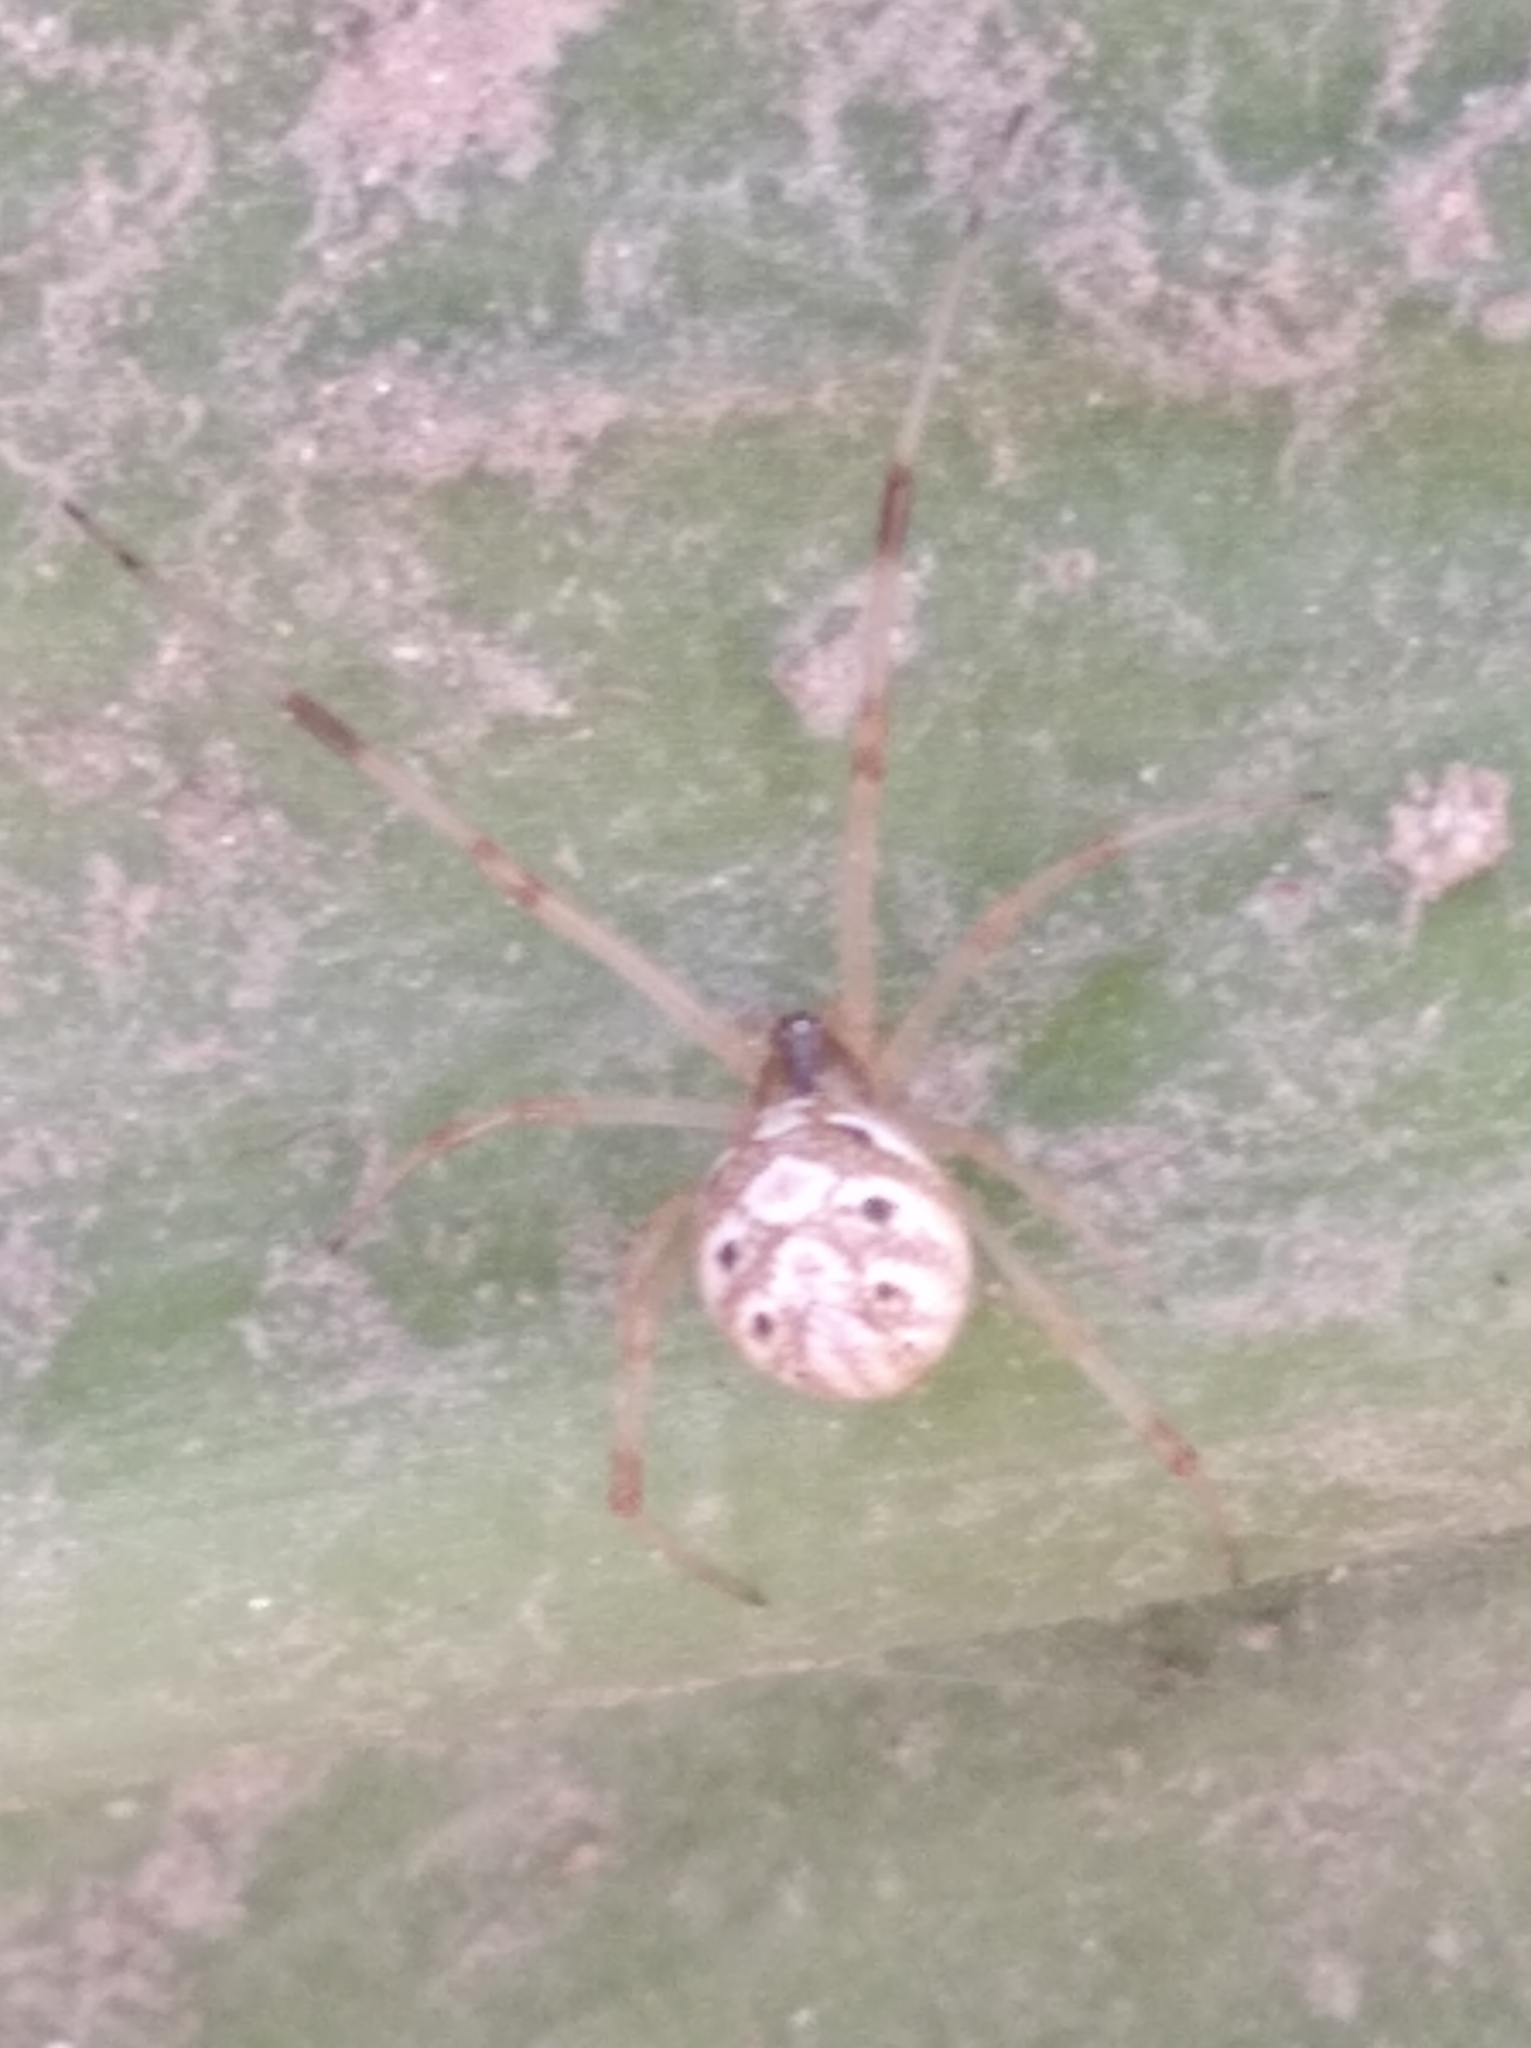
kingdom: Animalia
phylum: Arthropoda
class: Arachnida
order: Araneae
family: Theridiidae
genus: Latrodectus
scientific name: Latrodectus geometricus
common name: Brown widow spider
